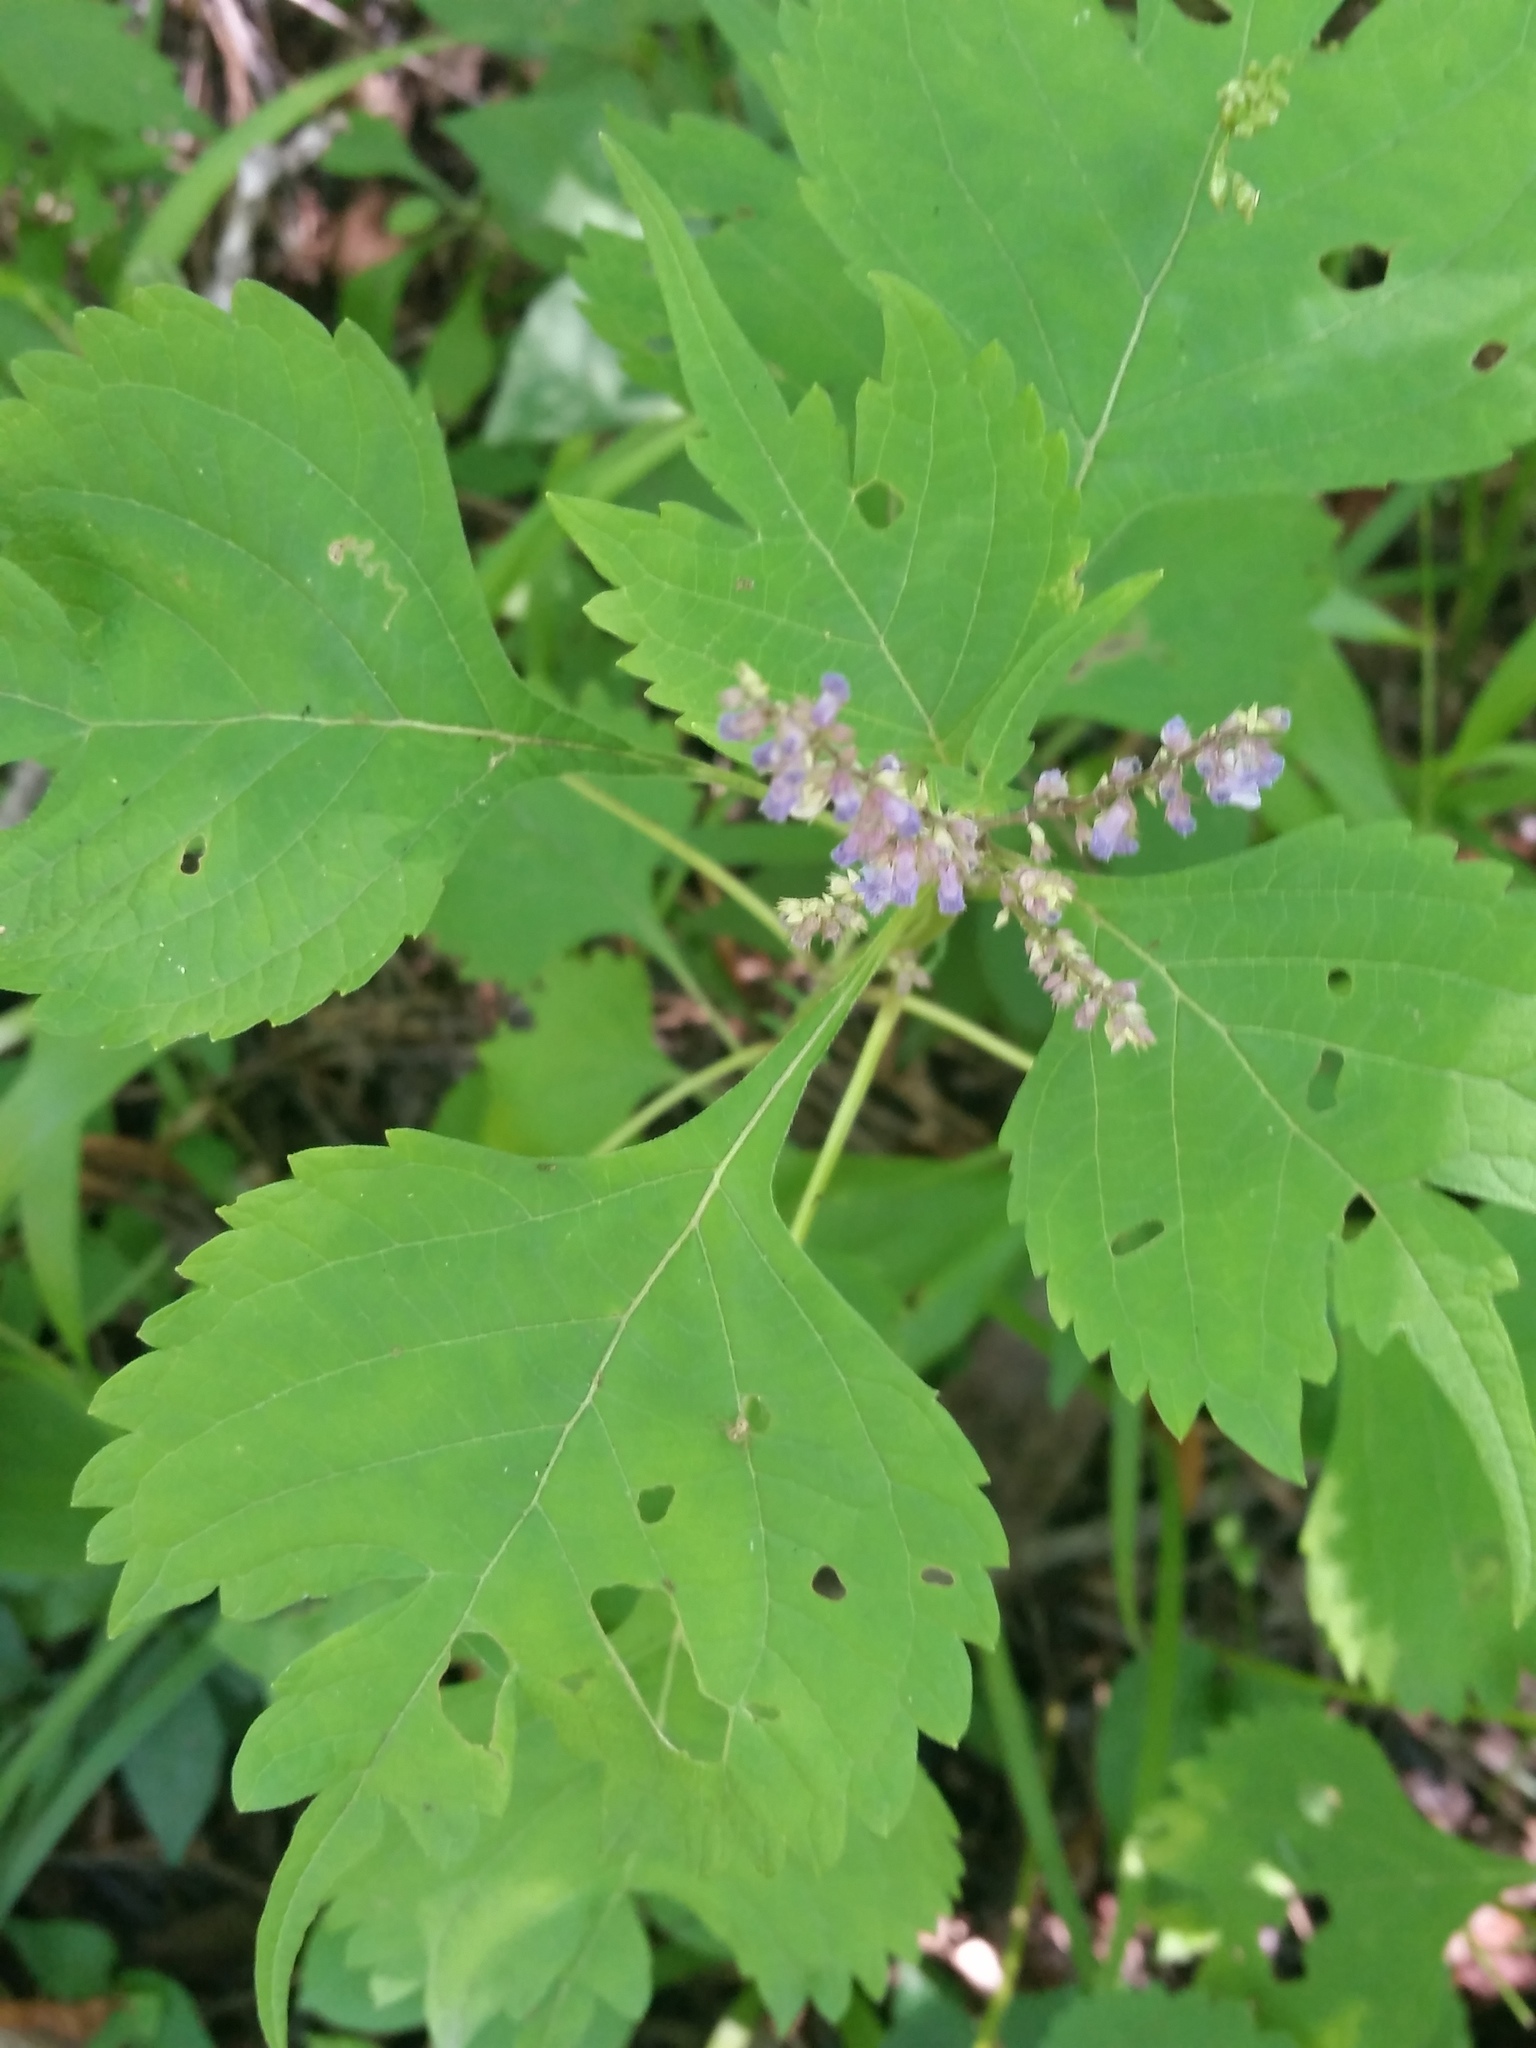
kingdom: Plantae
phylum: Tracheophyta
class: Magnoliopsida
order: Lamiales
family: Lamiaceae
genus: Isodon
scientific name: Isodon excisus
